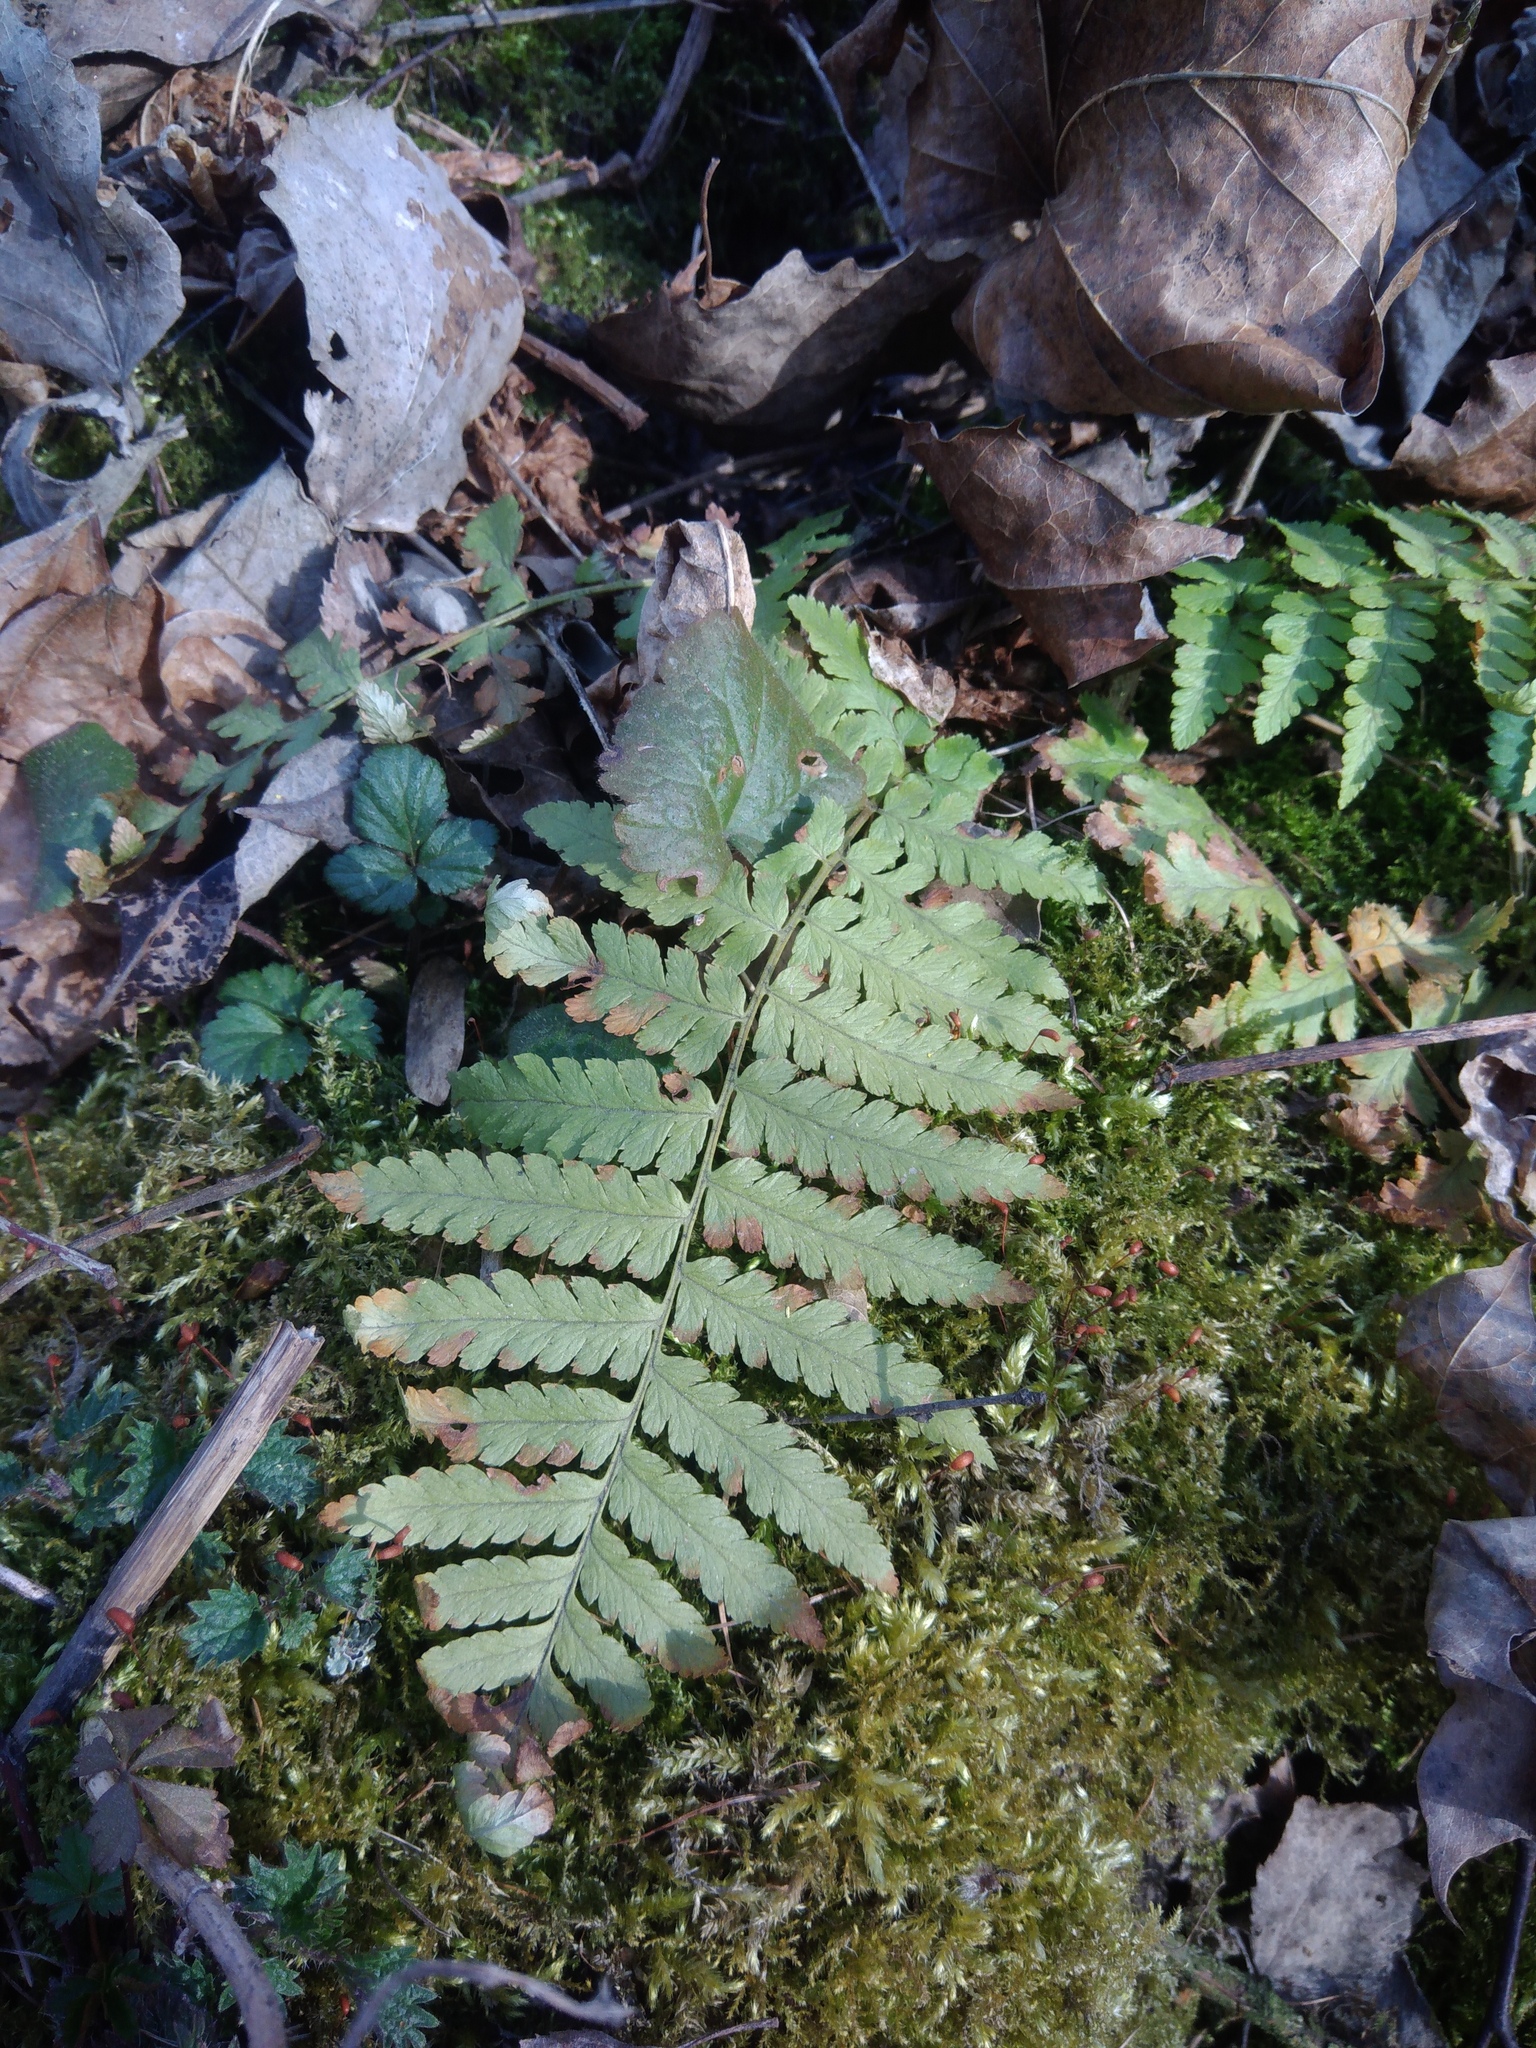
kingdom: Plantae
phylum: Tracheophyta
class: Polypodiopsida
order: Polypodiales
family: Dryopteridaceae
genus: Dryopteris
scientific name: Dryopteris filix-mas
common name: Male fern
